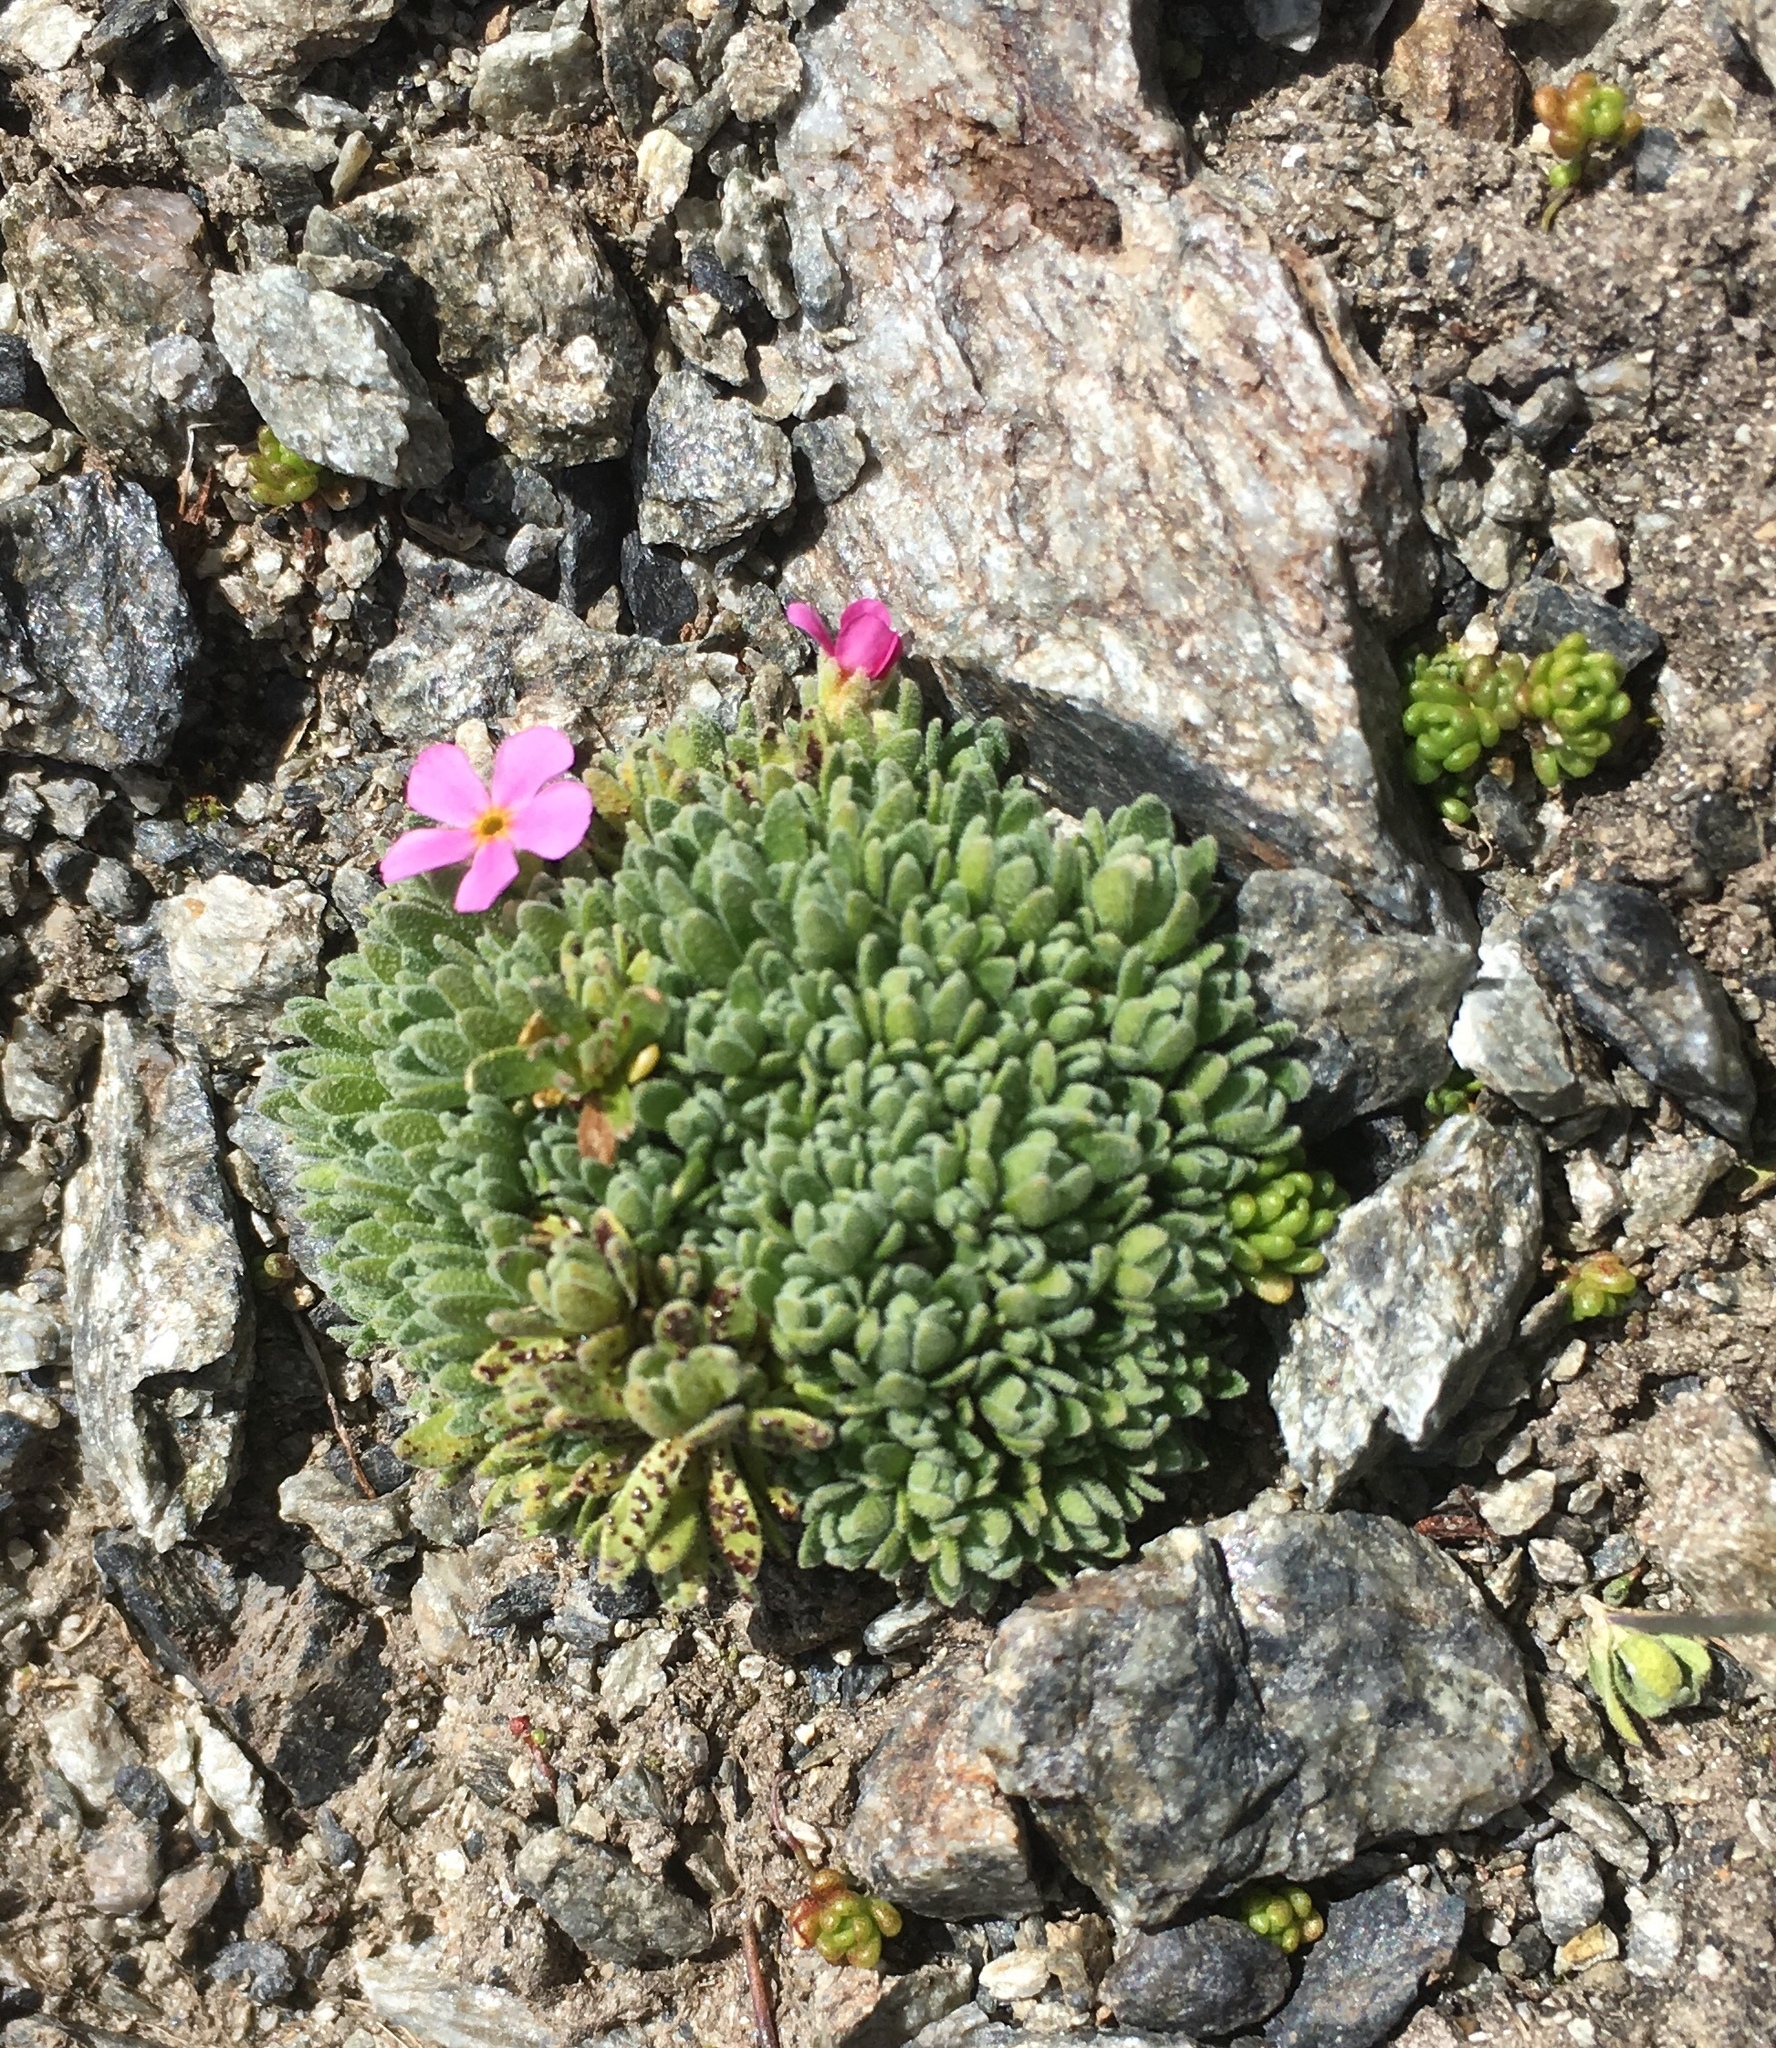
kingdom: Plantae
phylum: Tracheophyta
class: Magnoliopsida
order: Ericales
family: Primulaceae
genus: Androsace
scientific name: Androsace alpina
